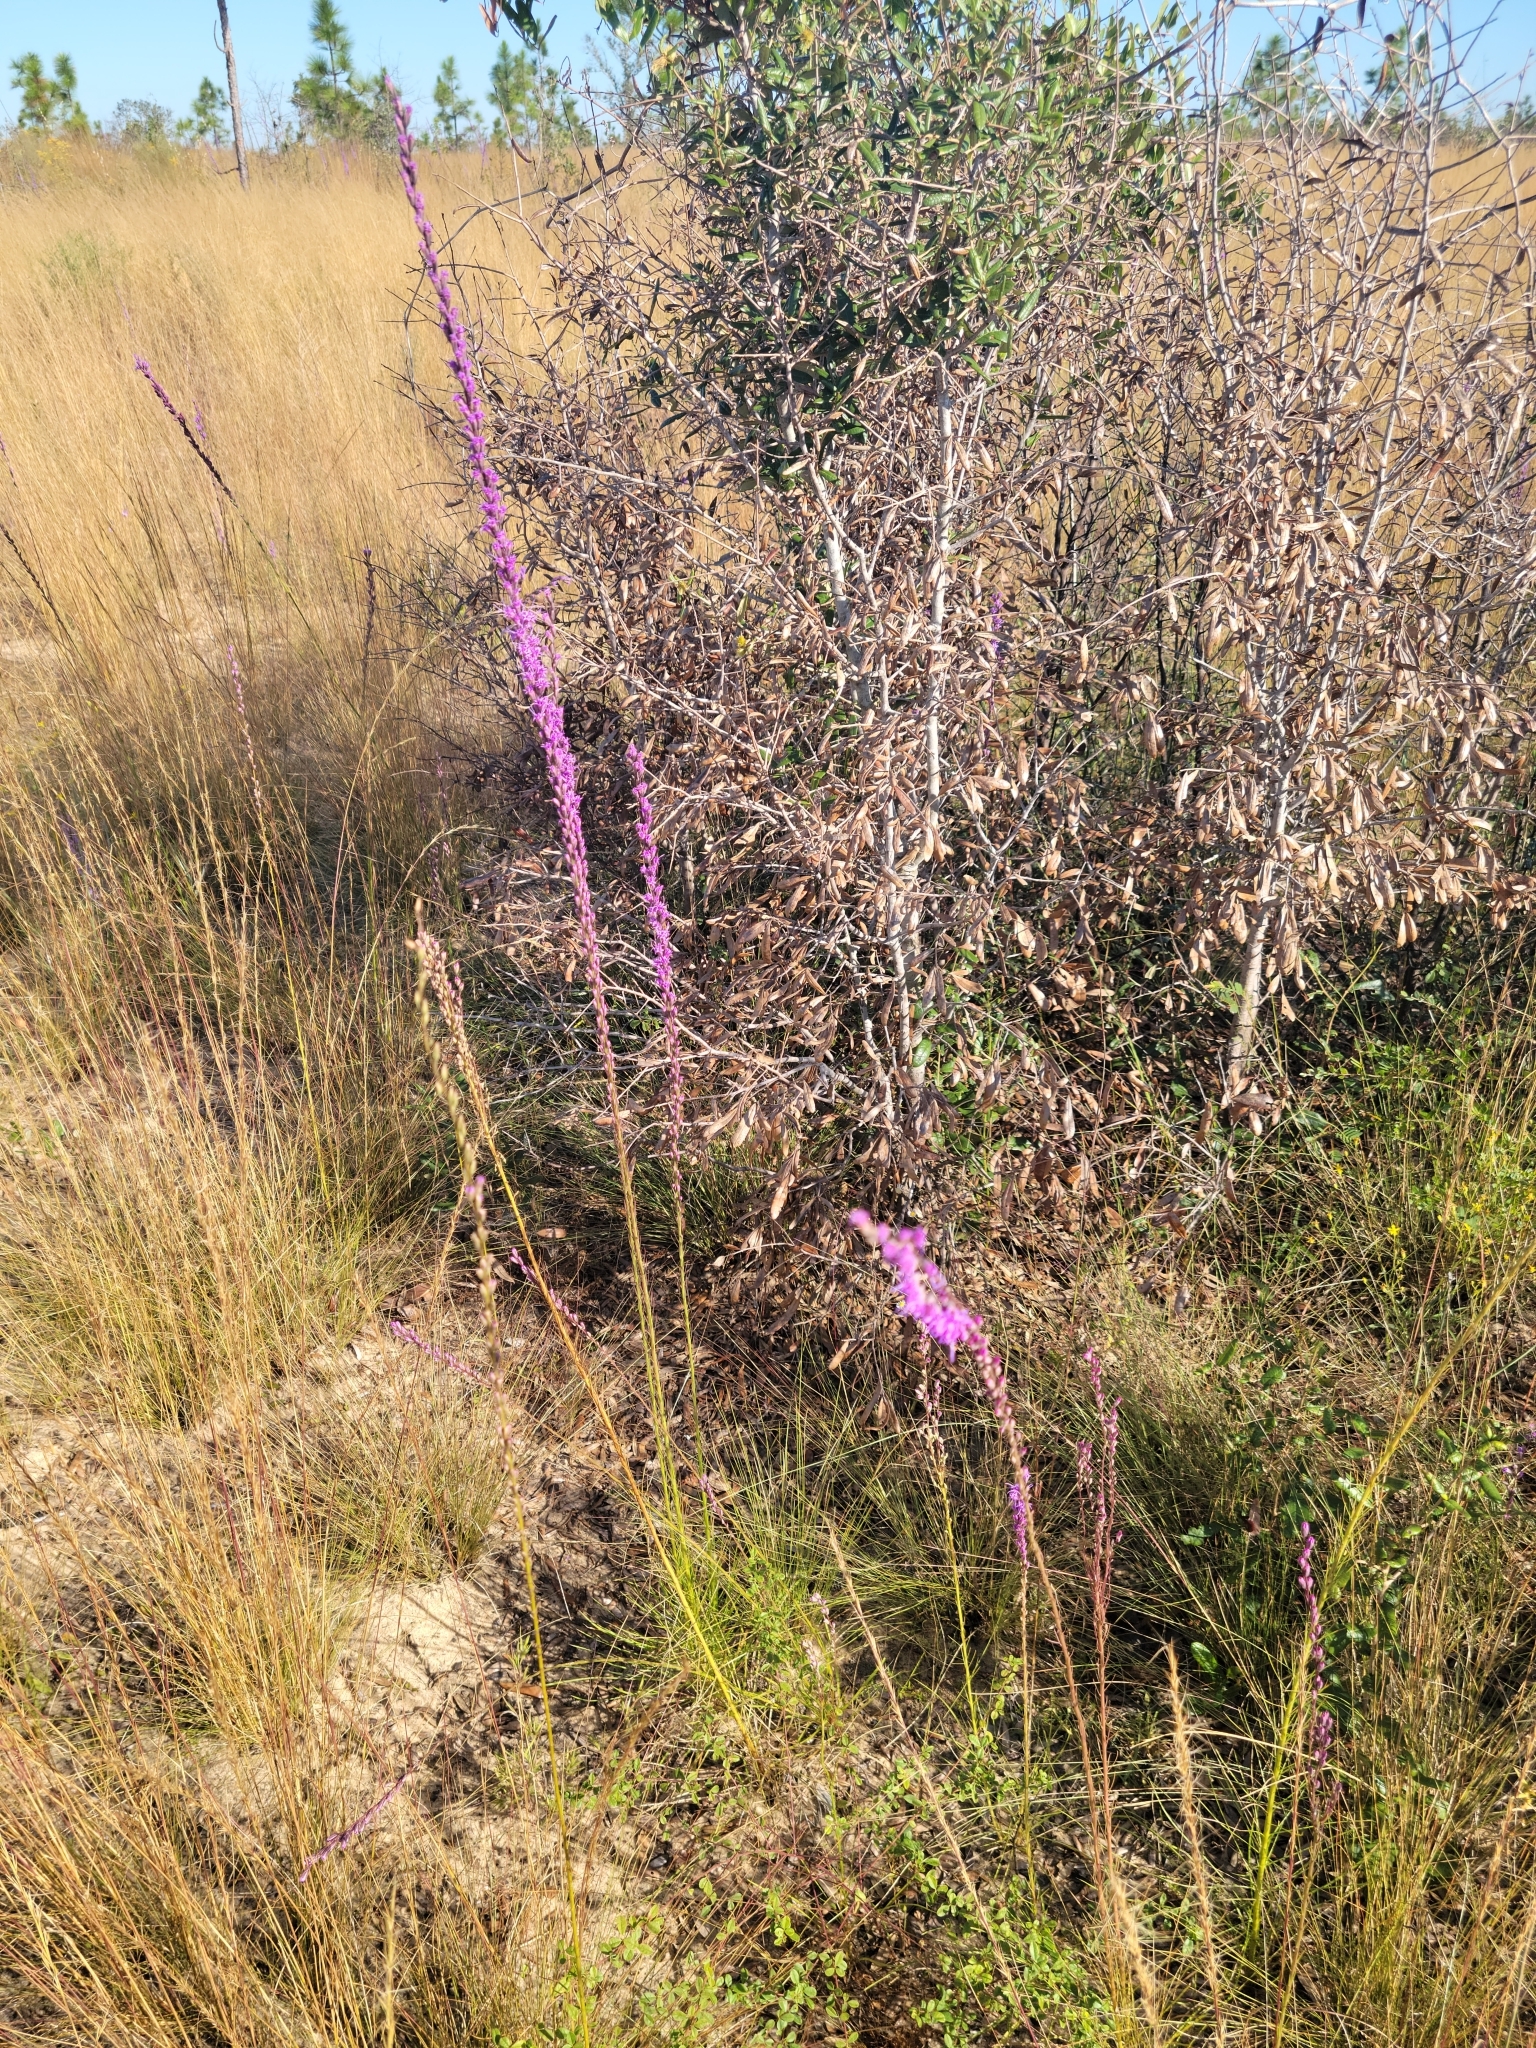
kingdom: Plantae
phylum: Tracheophyta
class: Magnoliopsida
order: Asterales
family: Asteraceae
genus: Liatris
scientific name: Liatris tenuifolia
